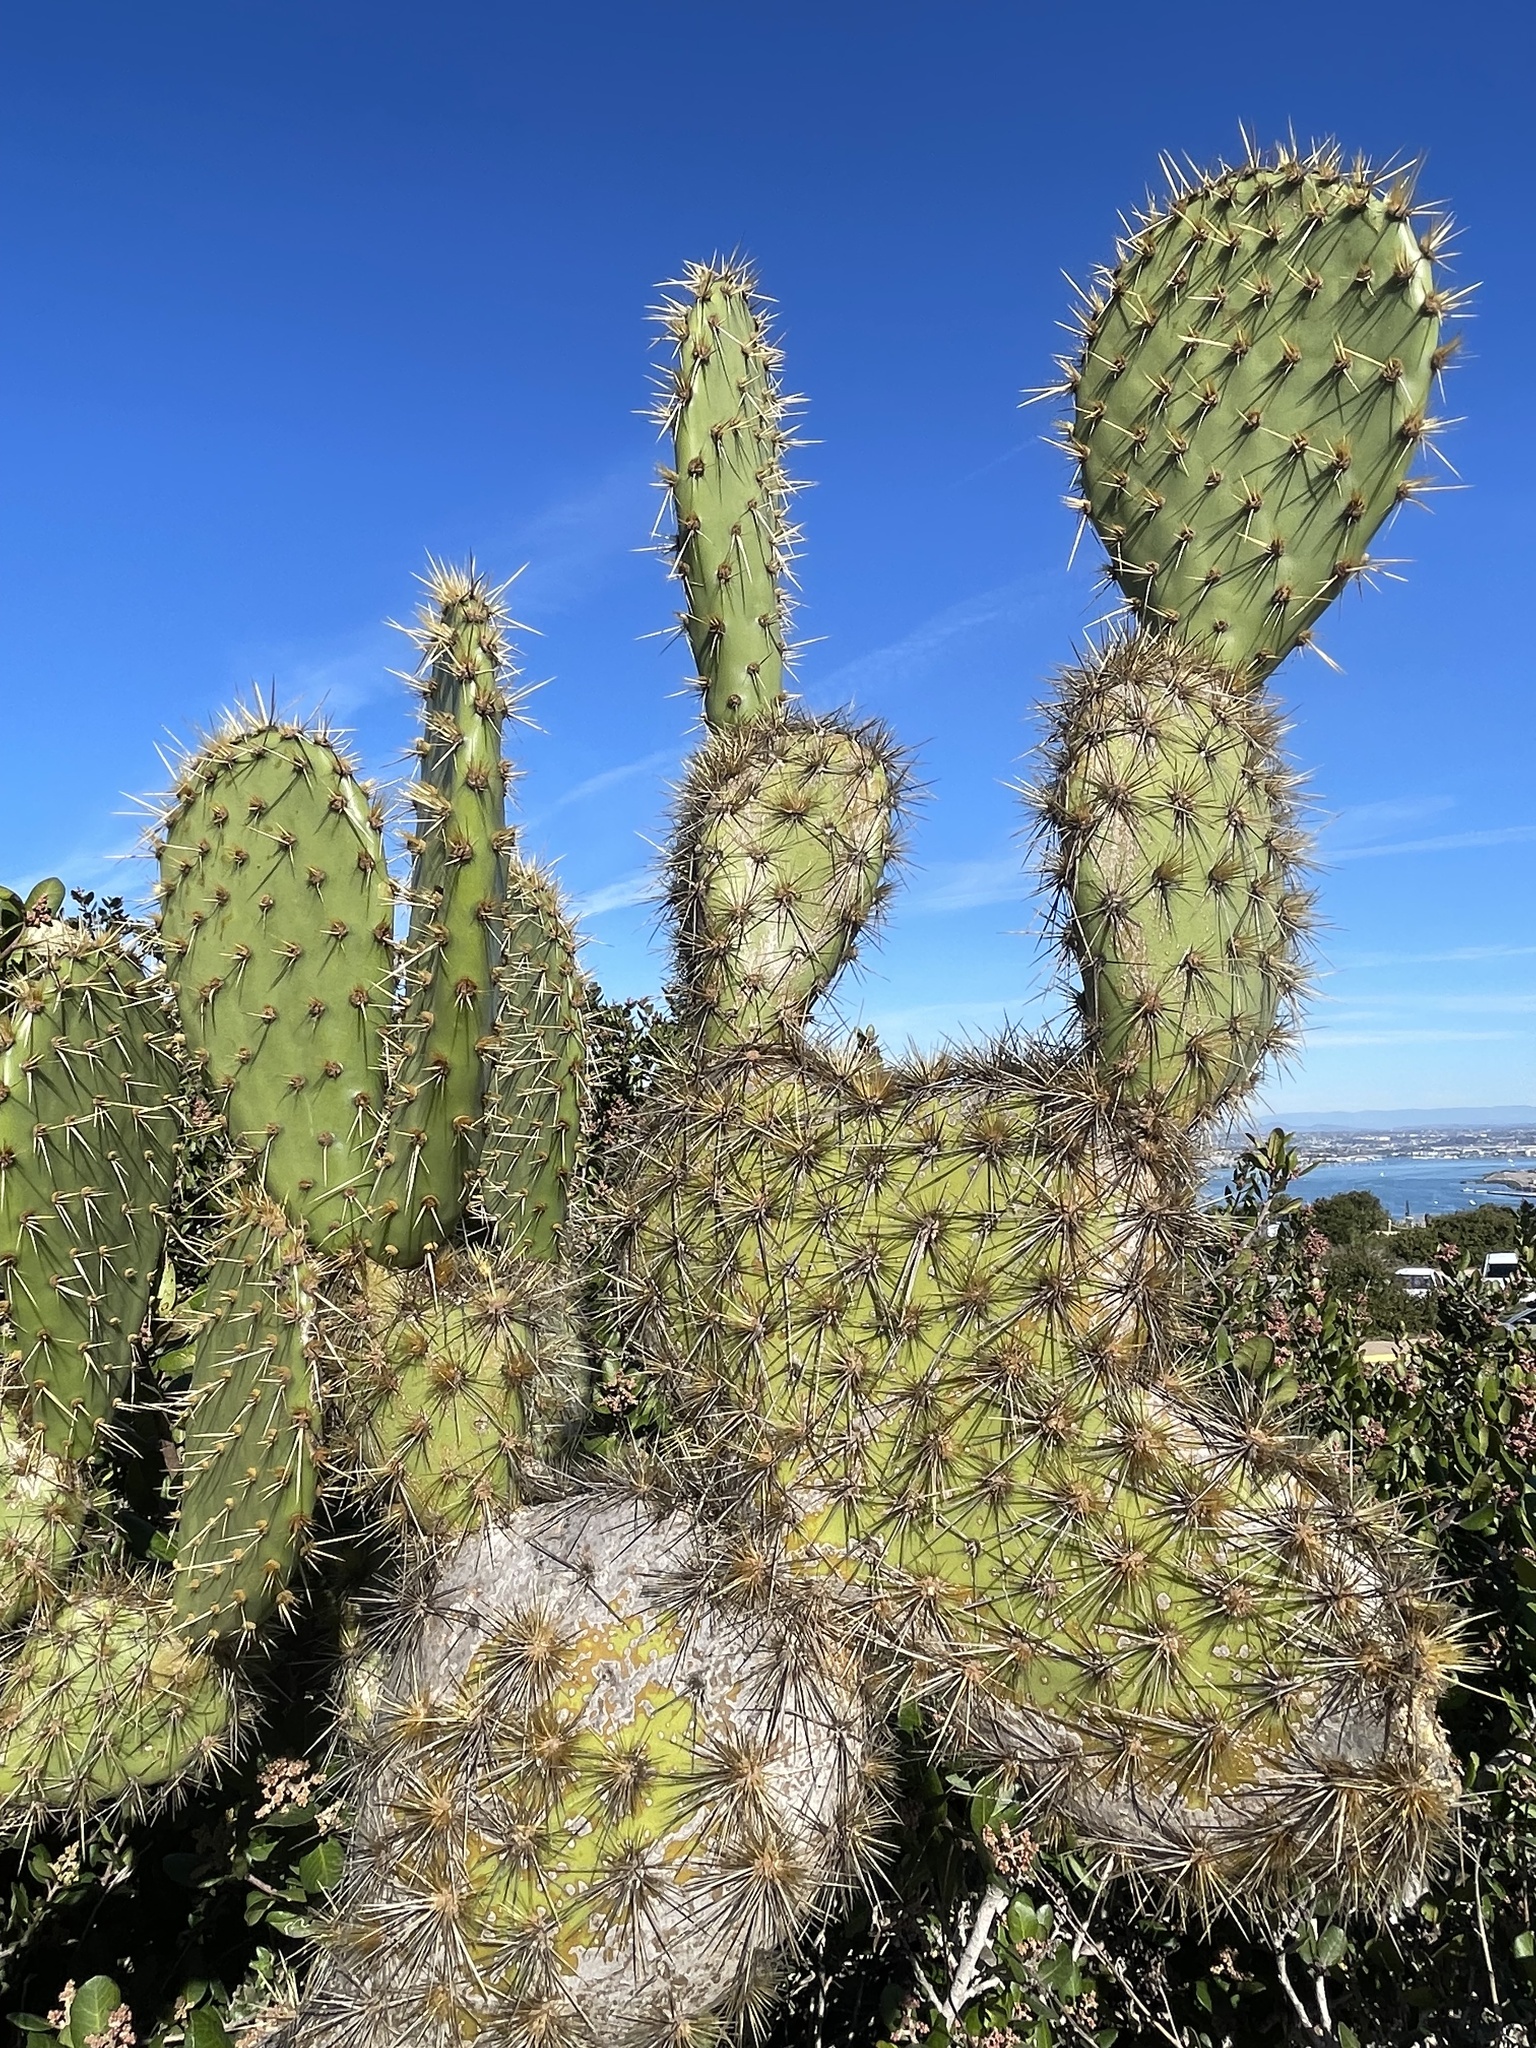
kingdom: Plantae
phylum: Tracheophyta
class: Magnoliopsida
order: Caryophyllales
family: Cactaceae
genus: Opuntia
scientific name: Opuntia oricola
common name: Chaparral prickly-pear
